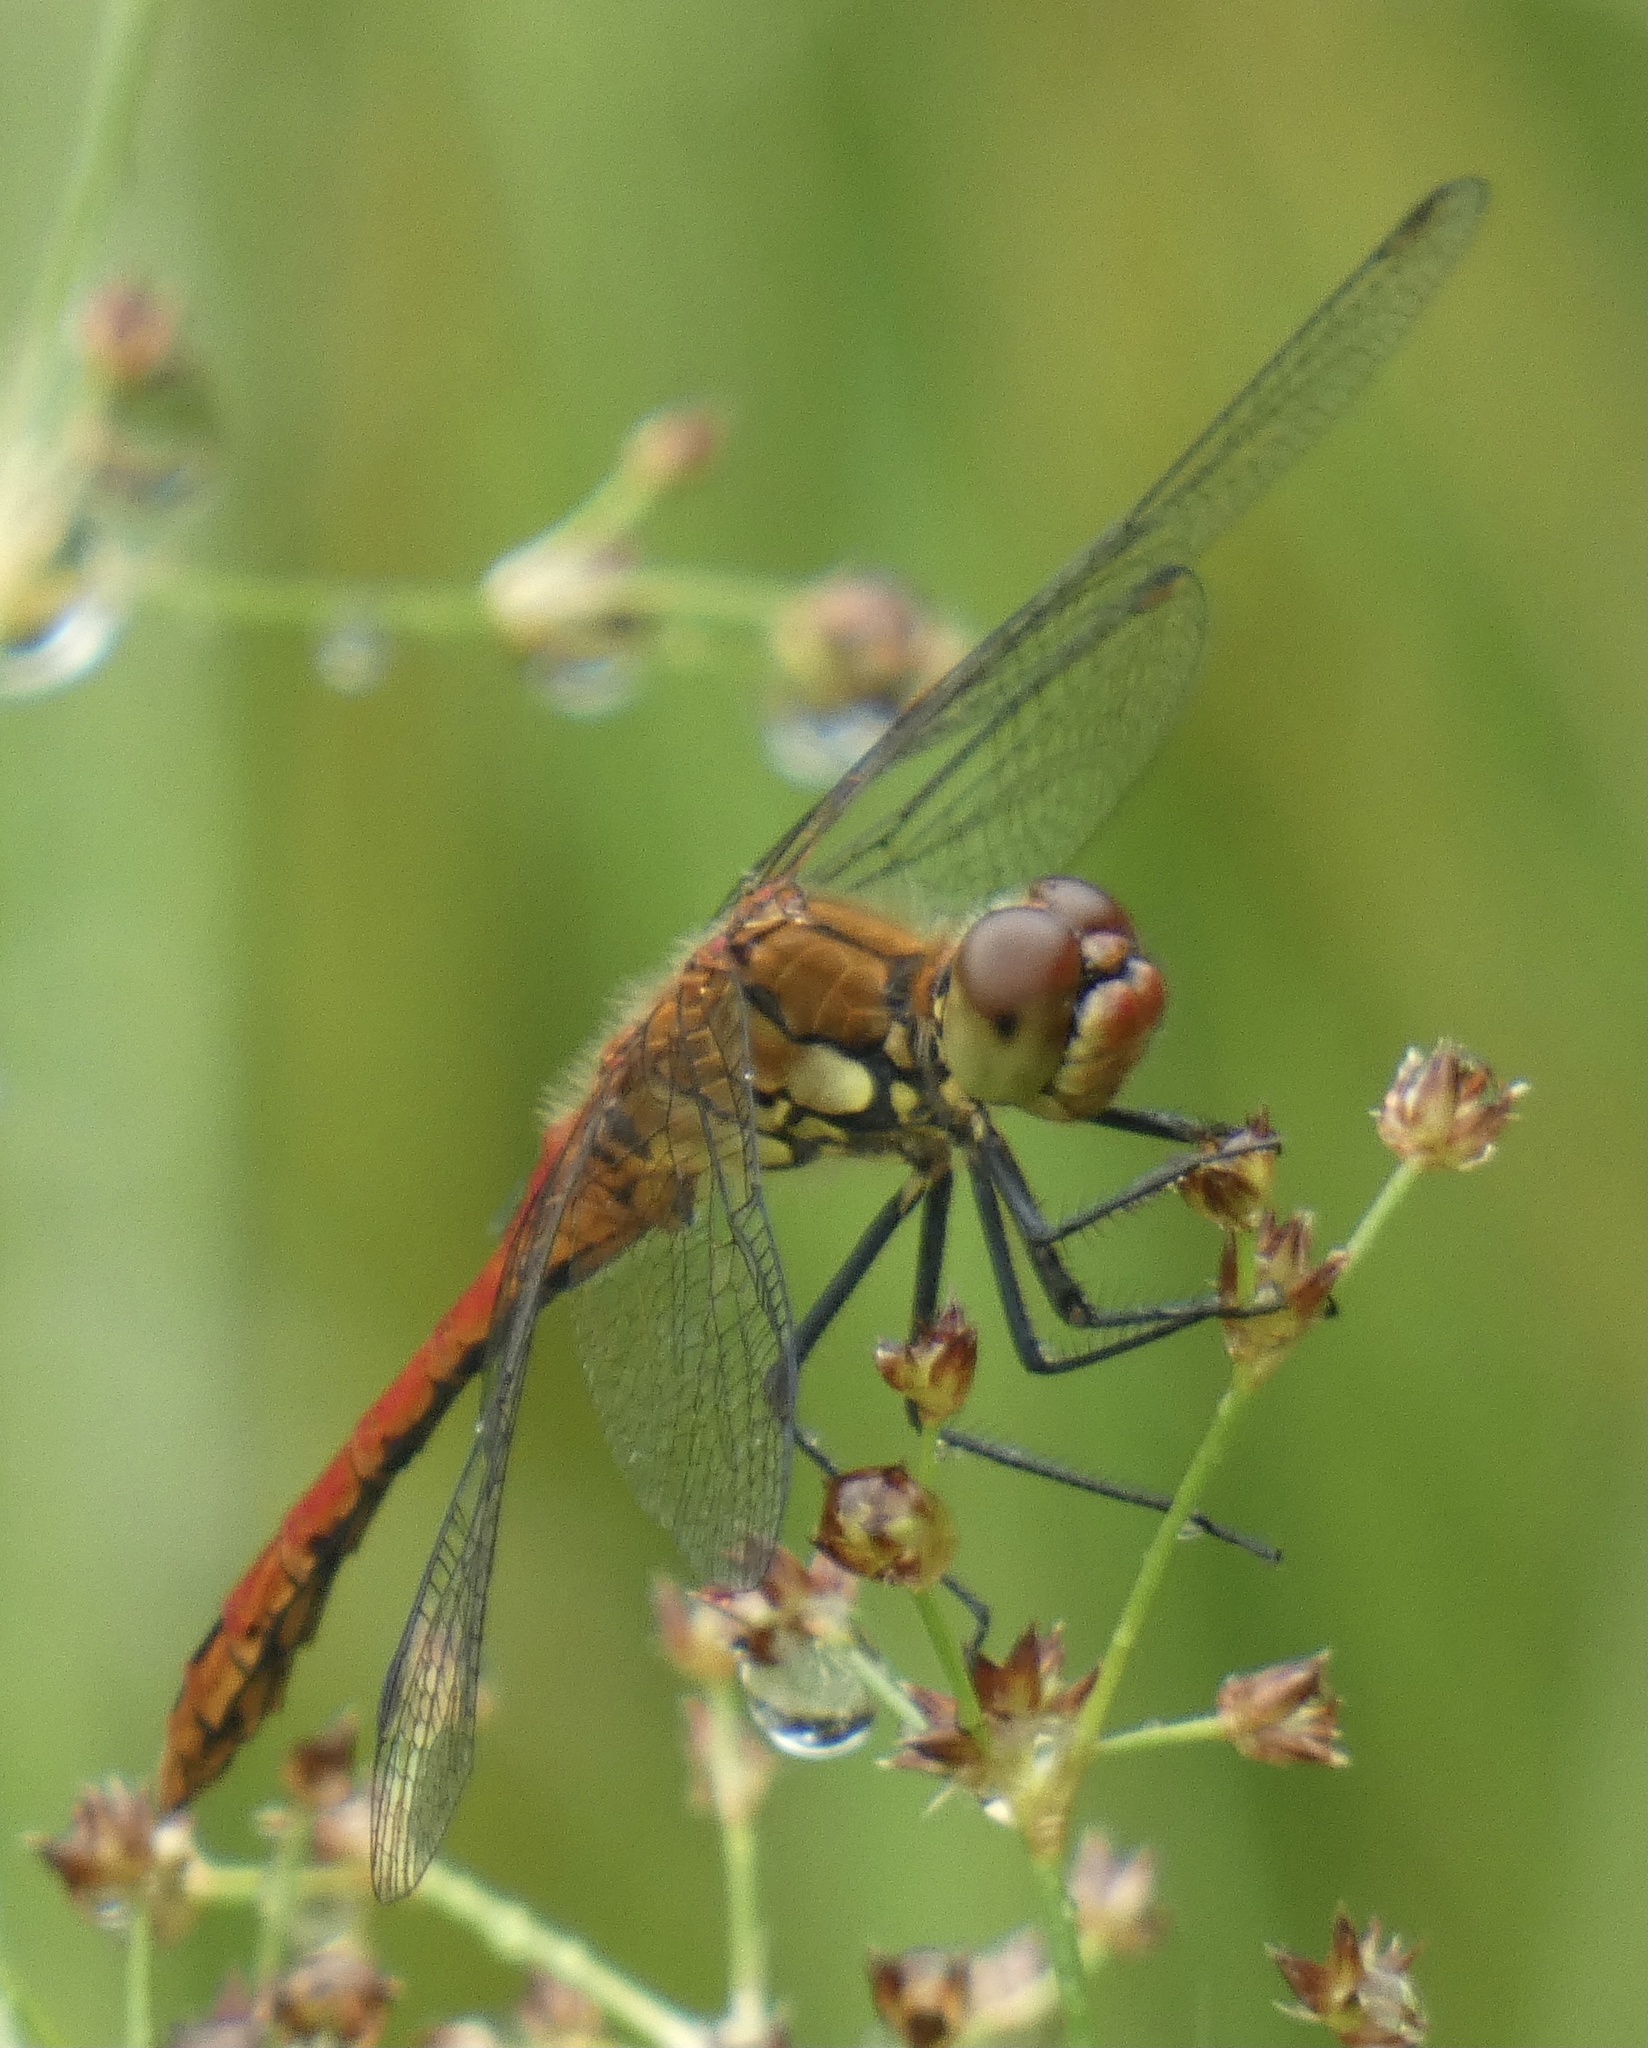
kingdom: Animalia
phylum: Arthropoda
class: Insecta
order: Odonata
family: Libellulidae
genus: Sympetrum
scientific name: Sympetrum sanguineum
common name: Ruddy darter
